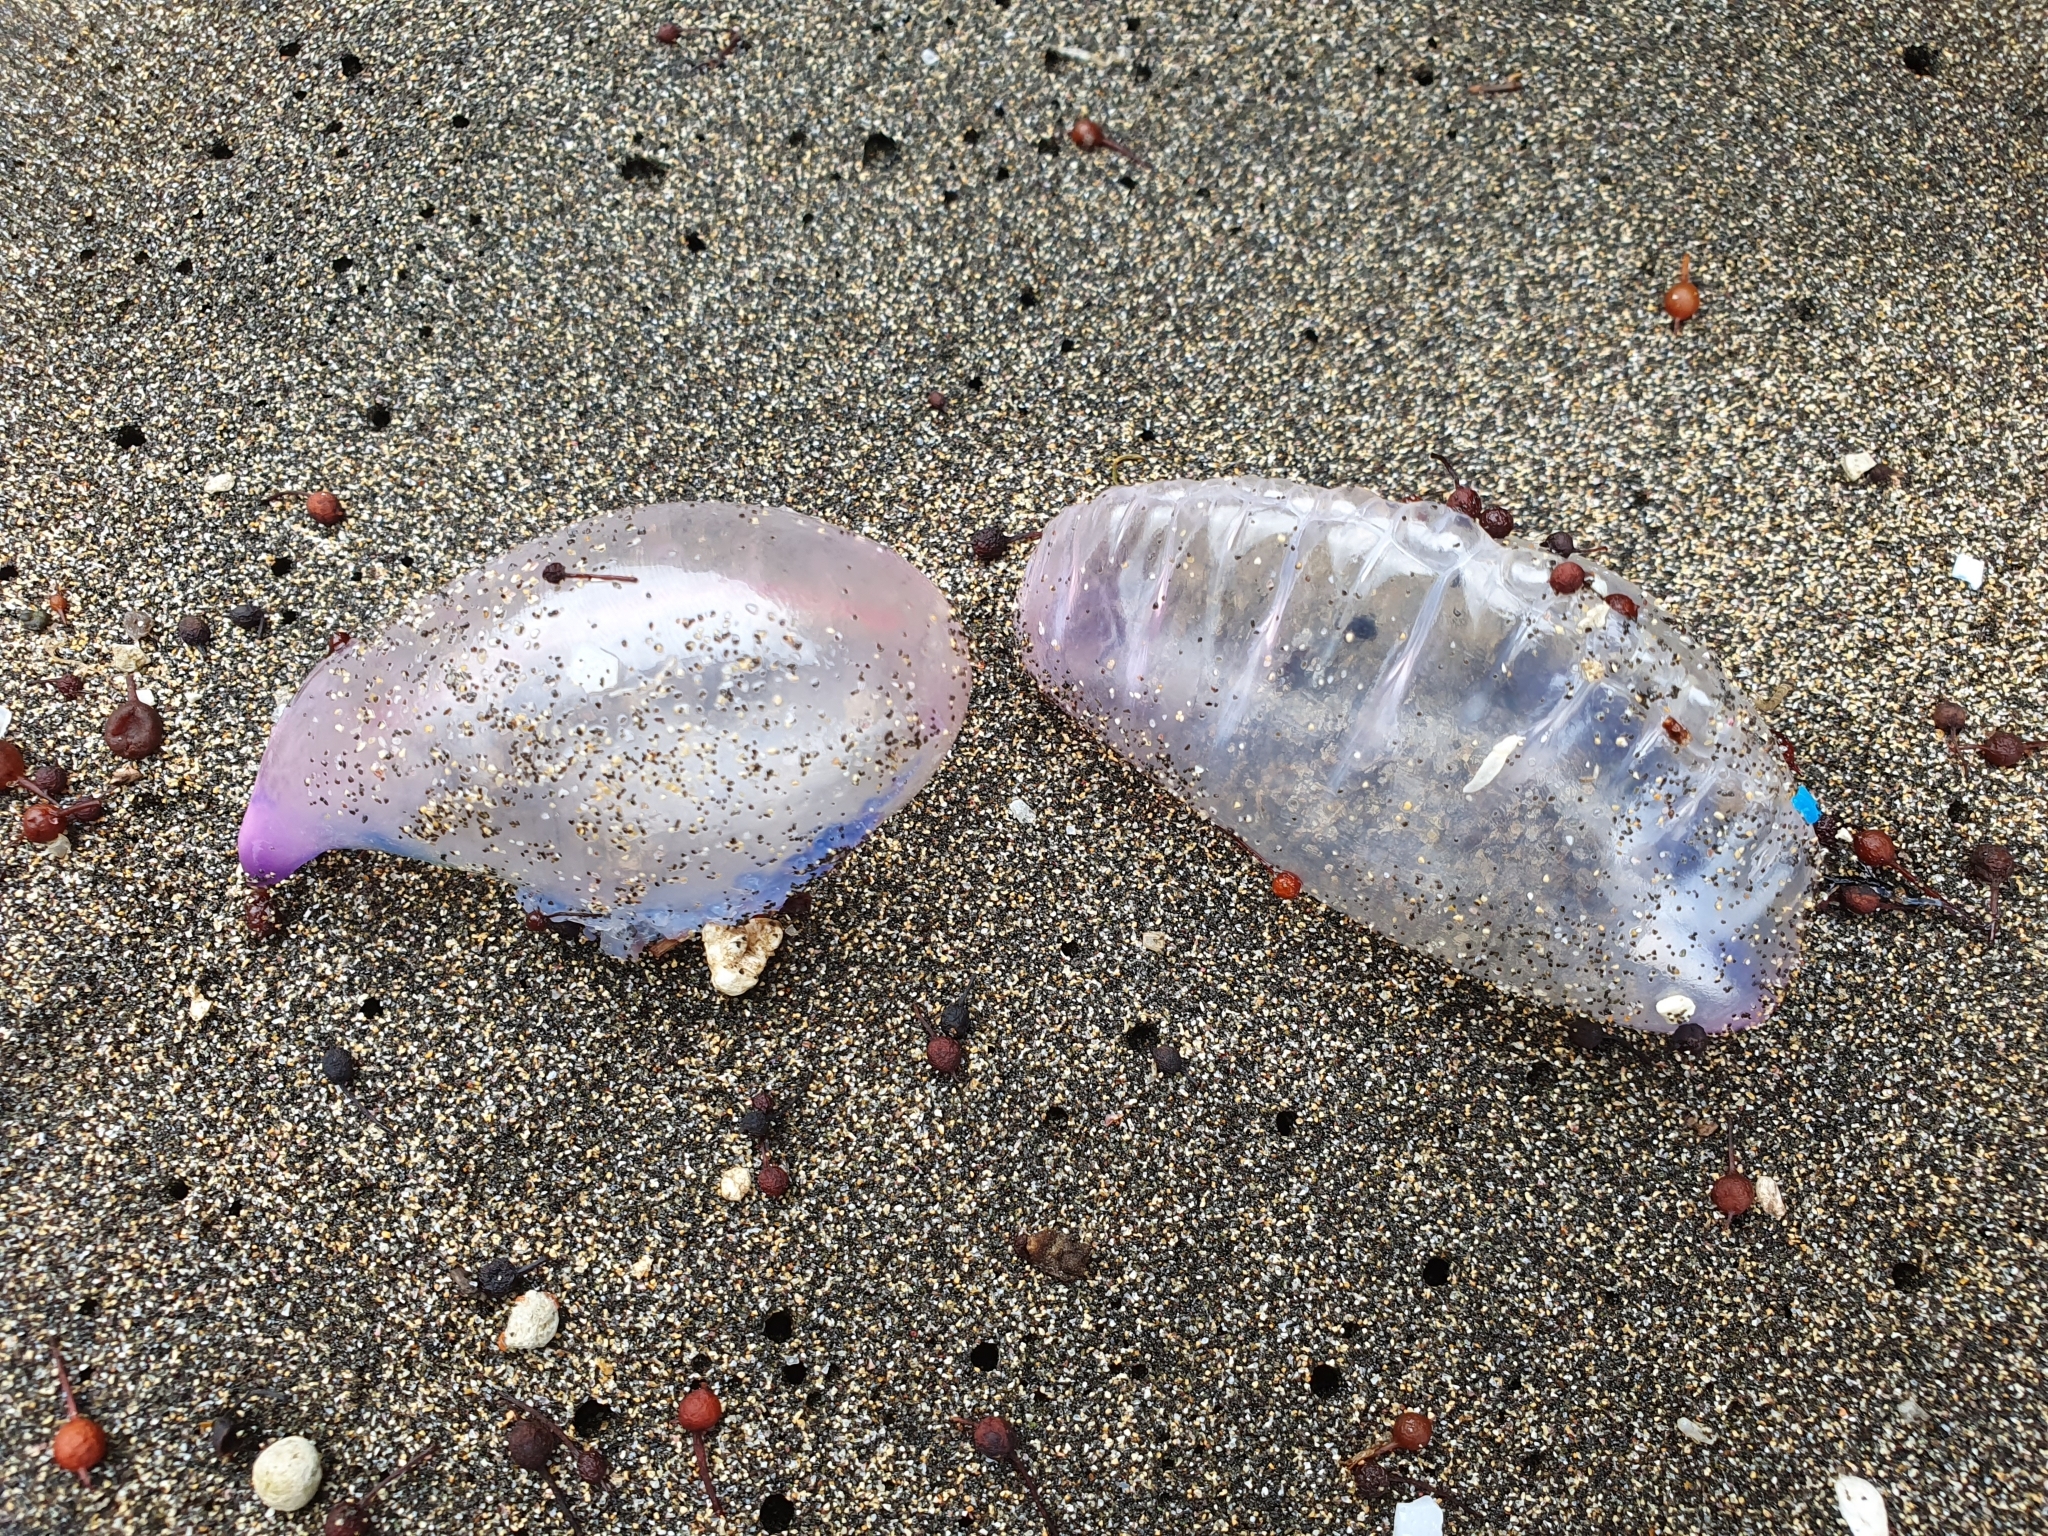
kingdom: Animalia
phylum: Cnidaria
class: Hydrozoa
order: Siphonophorae
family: Physaliidae
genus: Physalia
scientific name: Physalia physalis
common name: Portuguese man-of-war
